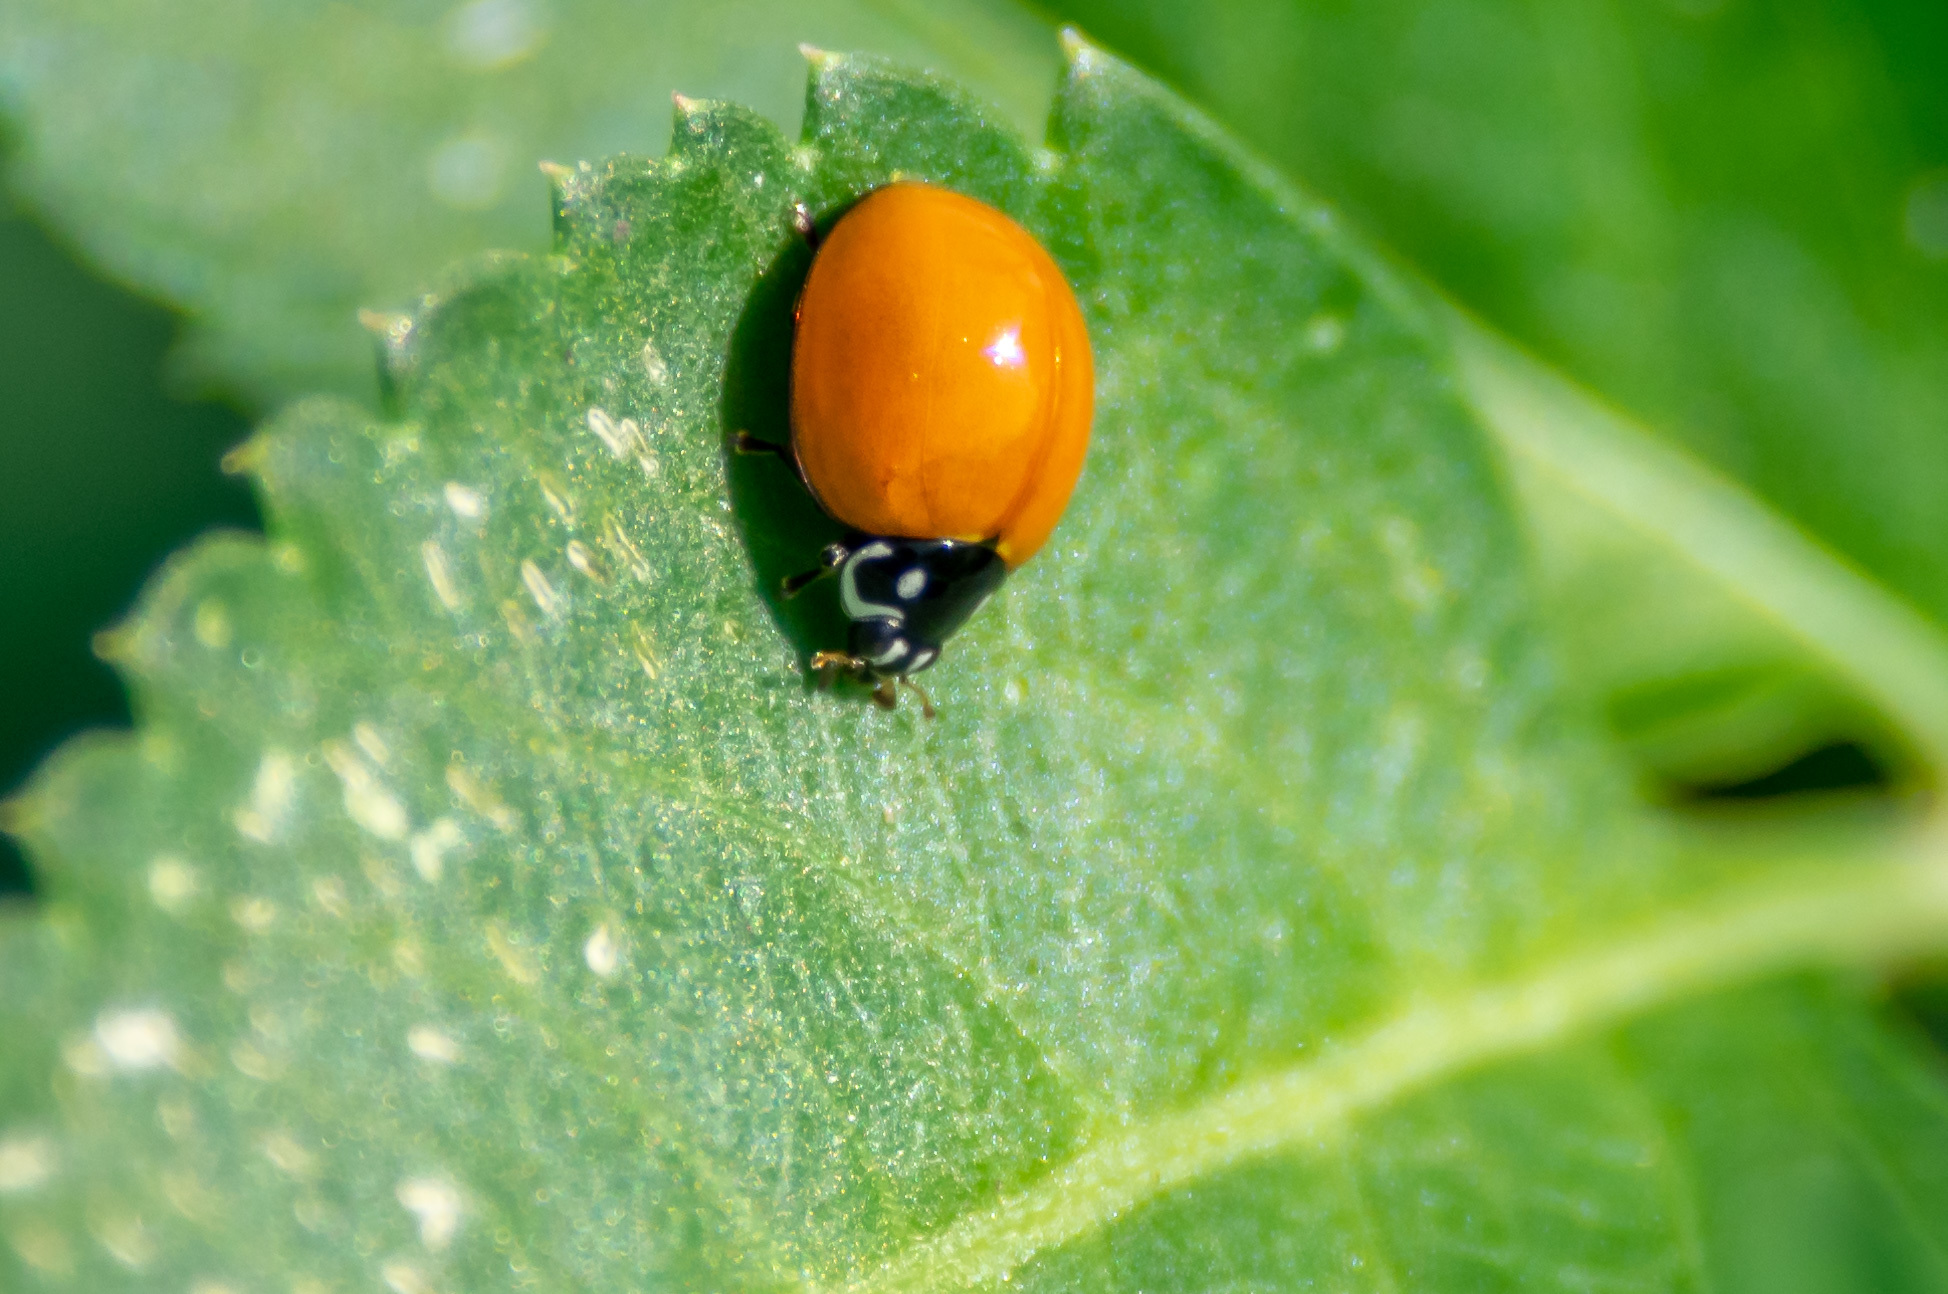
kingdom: Animalia
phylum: Arthropoda
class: Insecta
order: Coleoptera
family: Coccinellidae
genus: Cycloneda
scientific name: Cycloneda sanguinea
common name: Ladybird beetle
